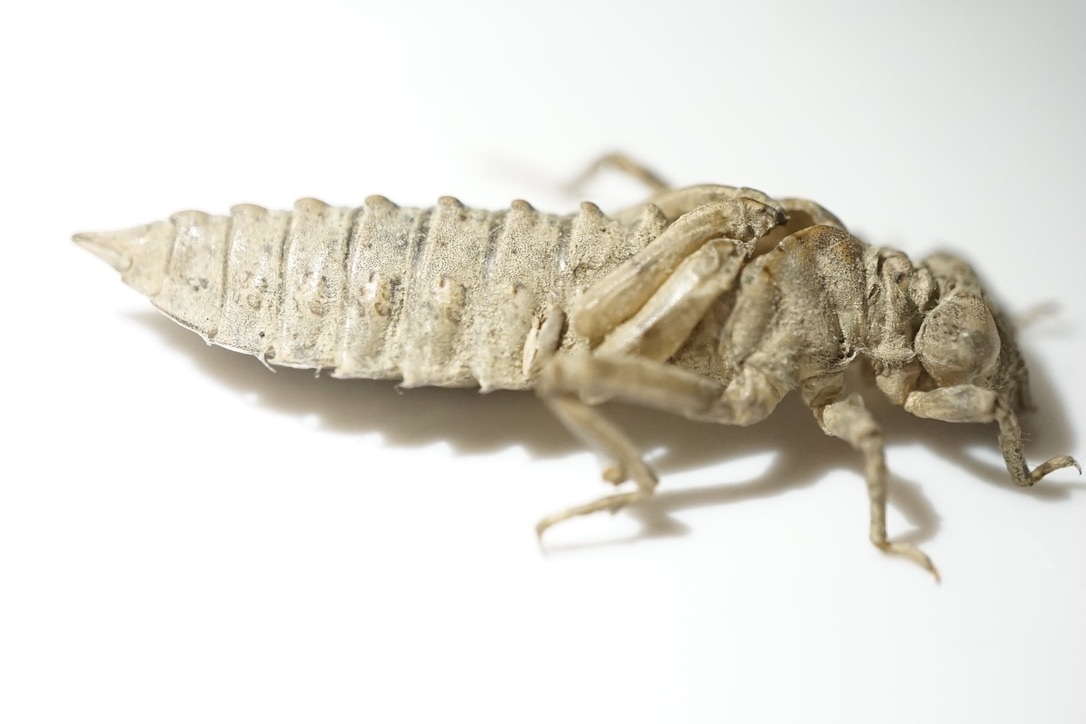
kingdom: Animalia
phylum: Arthropoda
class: Insecta
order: Odonata
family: Gomphidae
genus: Nihonogomphus
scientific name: Nihonogomphus viridis
